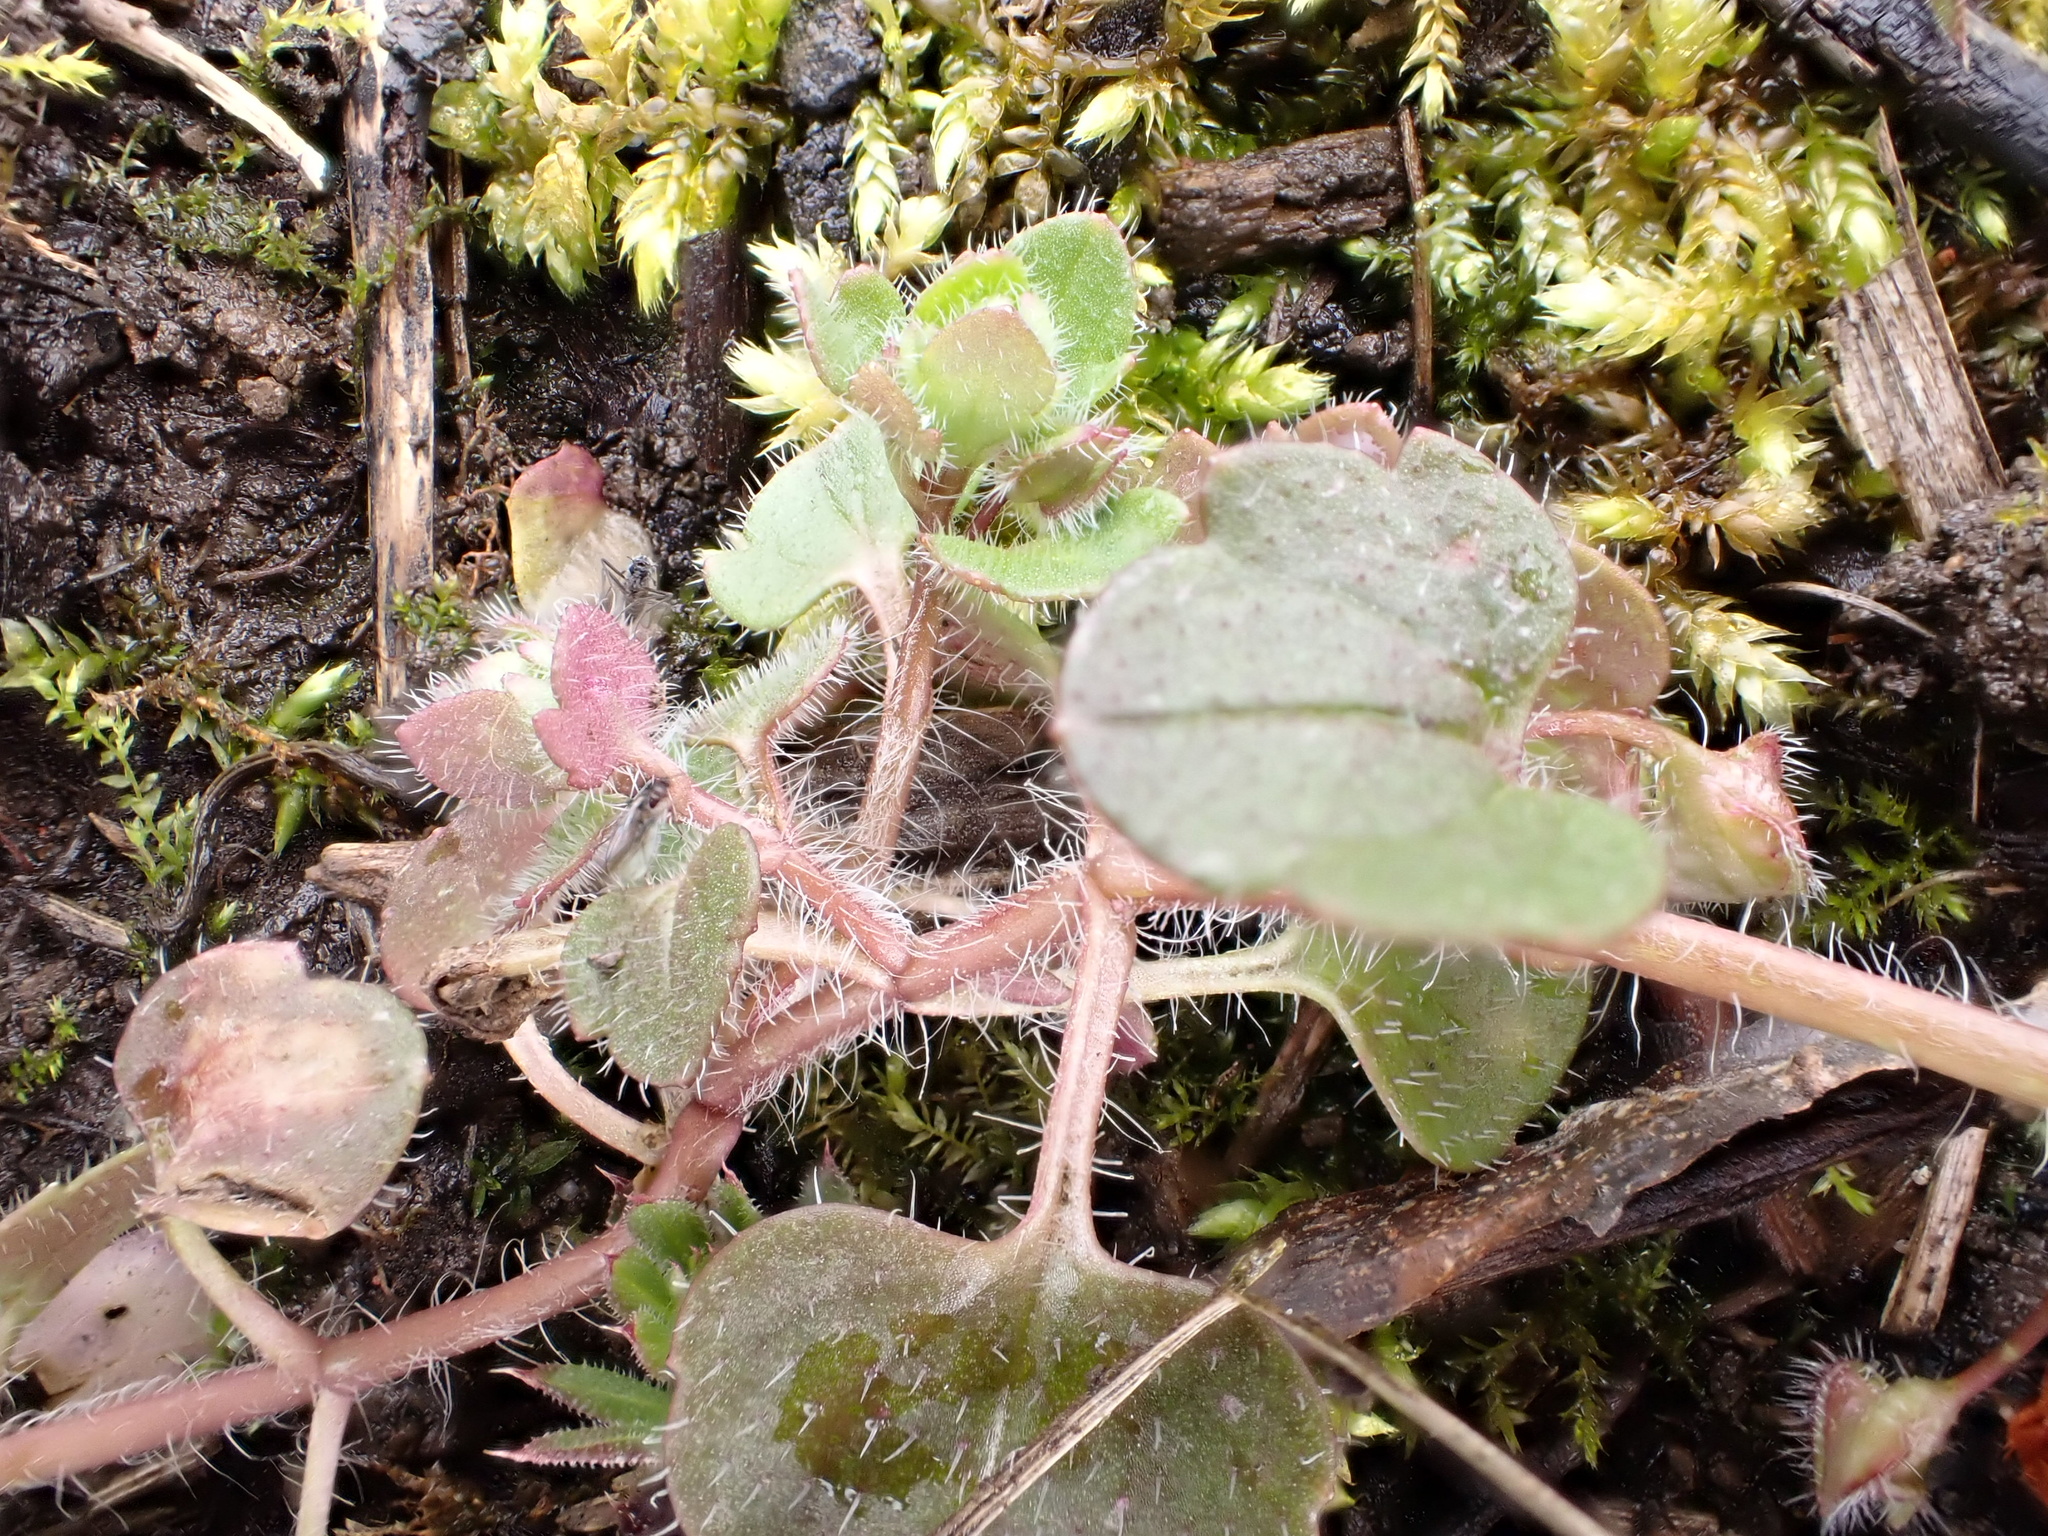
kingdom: Plantae
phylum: Tracheophyta
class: Magnoliopsida
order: Lamiales
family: Plantaginaceae
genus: Veronica
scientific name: Veronica hederifolia
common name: Ivy-leaved speedwell
